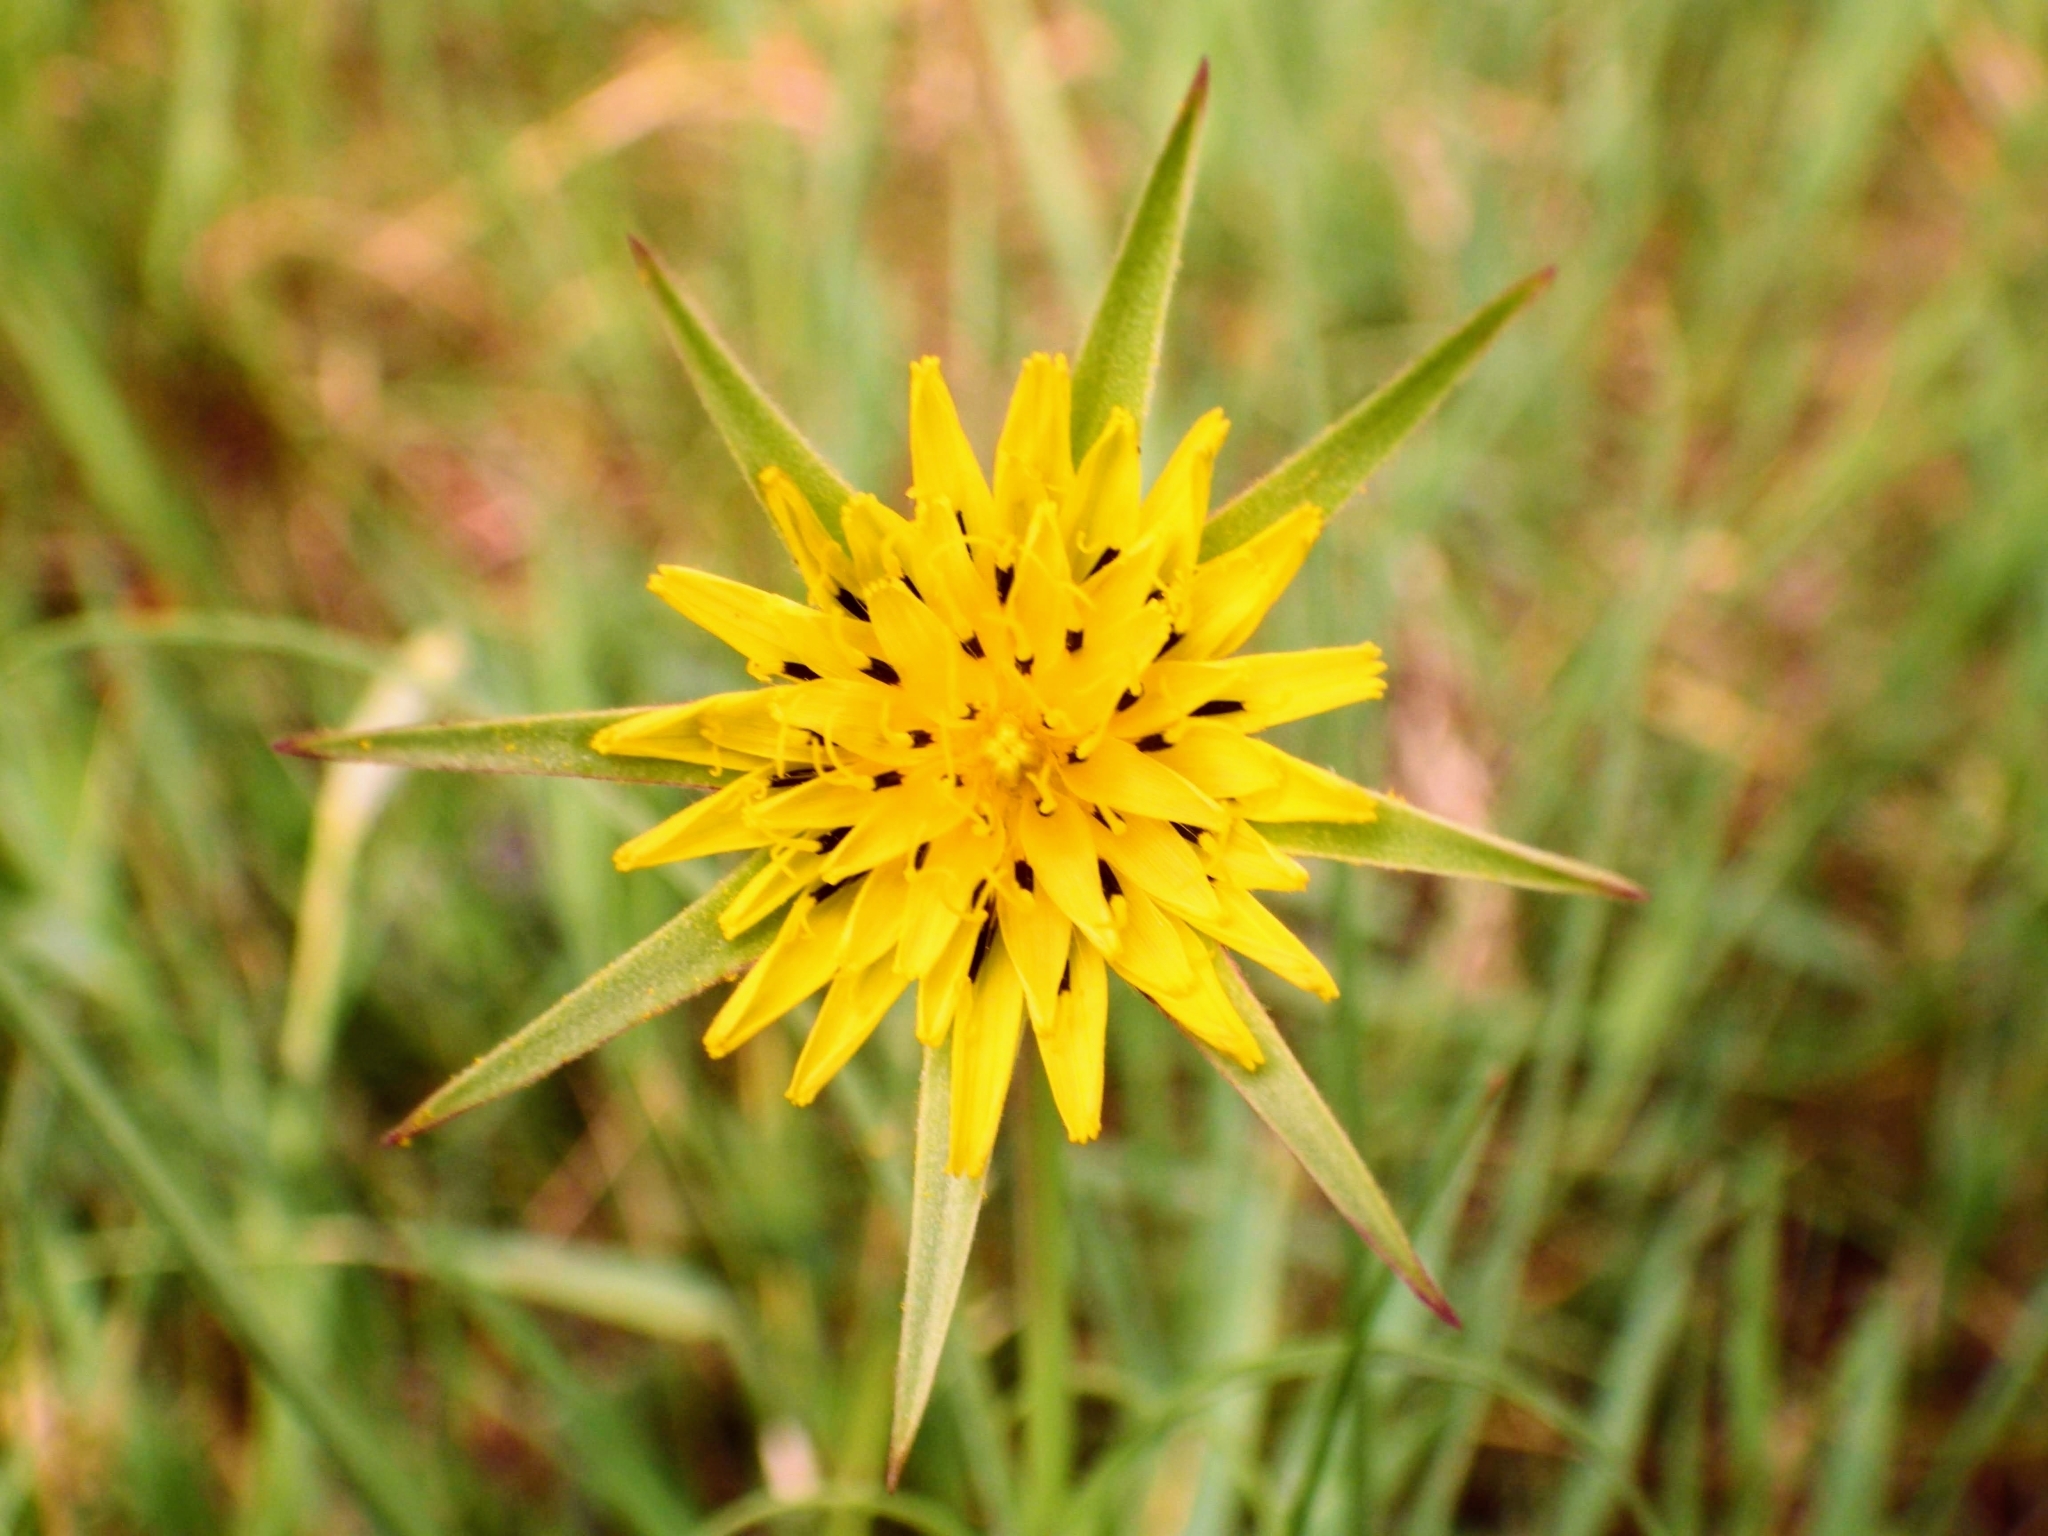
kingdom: Plantae
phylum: Tracheophyta
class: Magnoliopsida
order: Asterales
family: Asteraceae
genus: Tragopogon
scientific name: Tragopogon pratensis
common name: Goat's-beard
